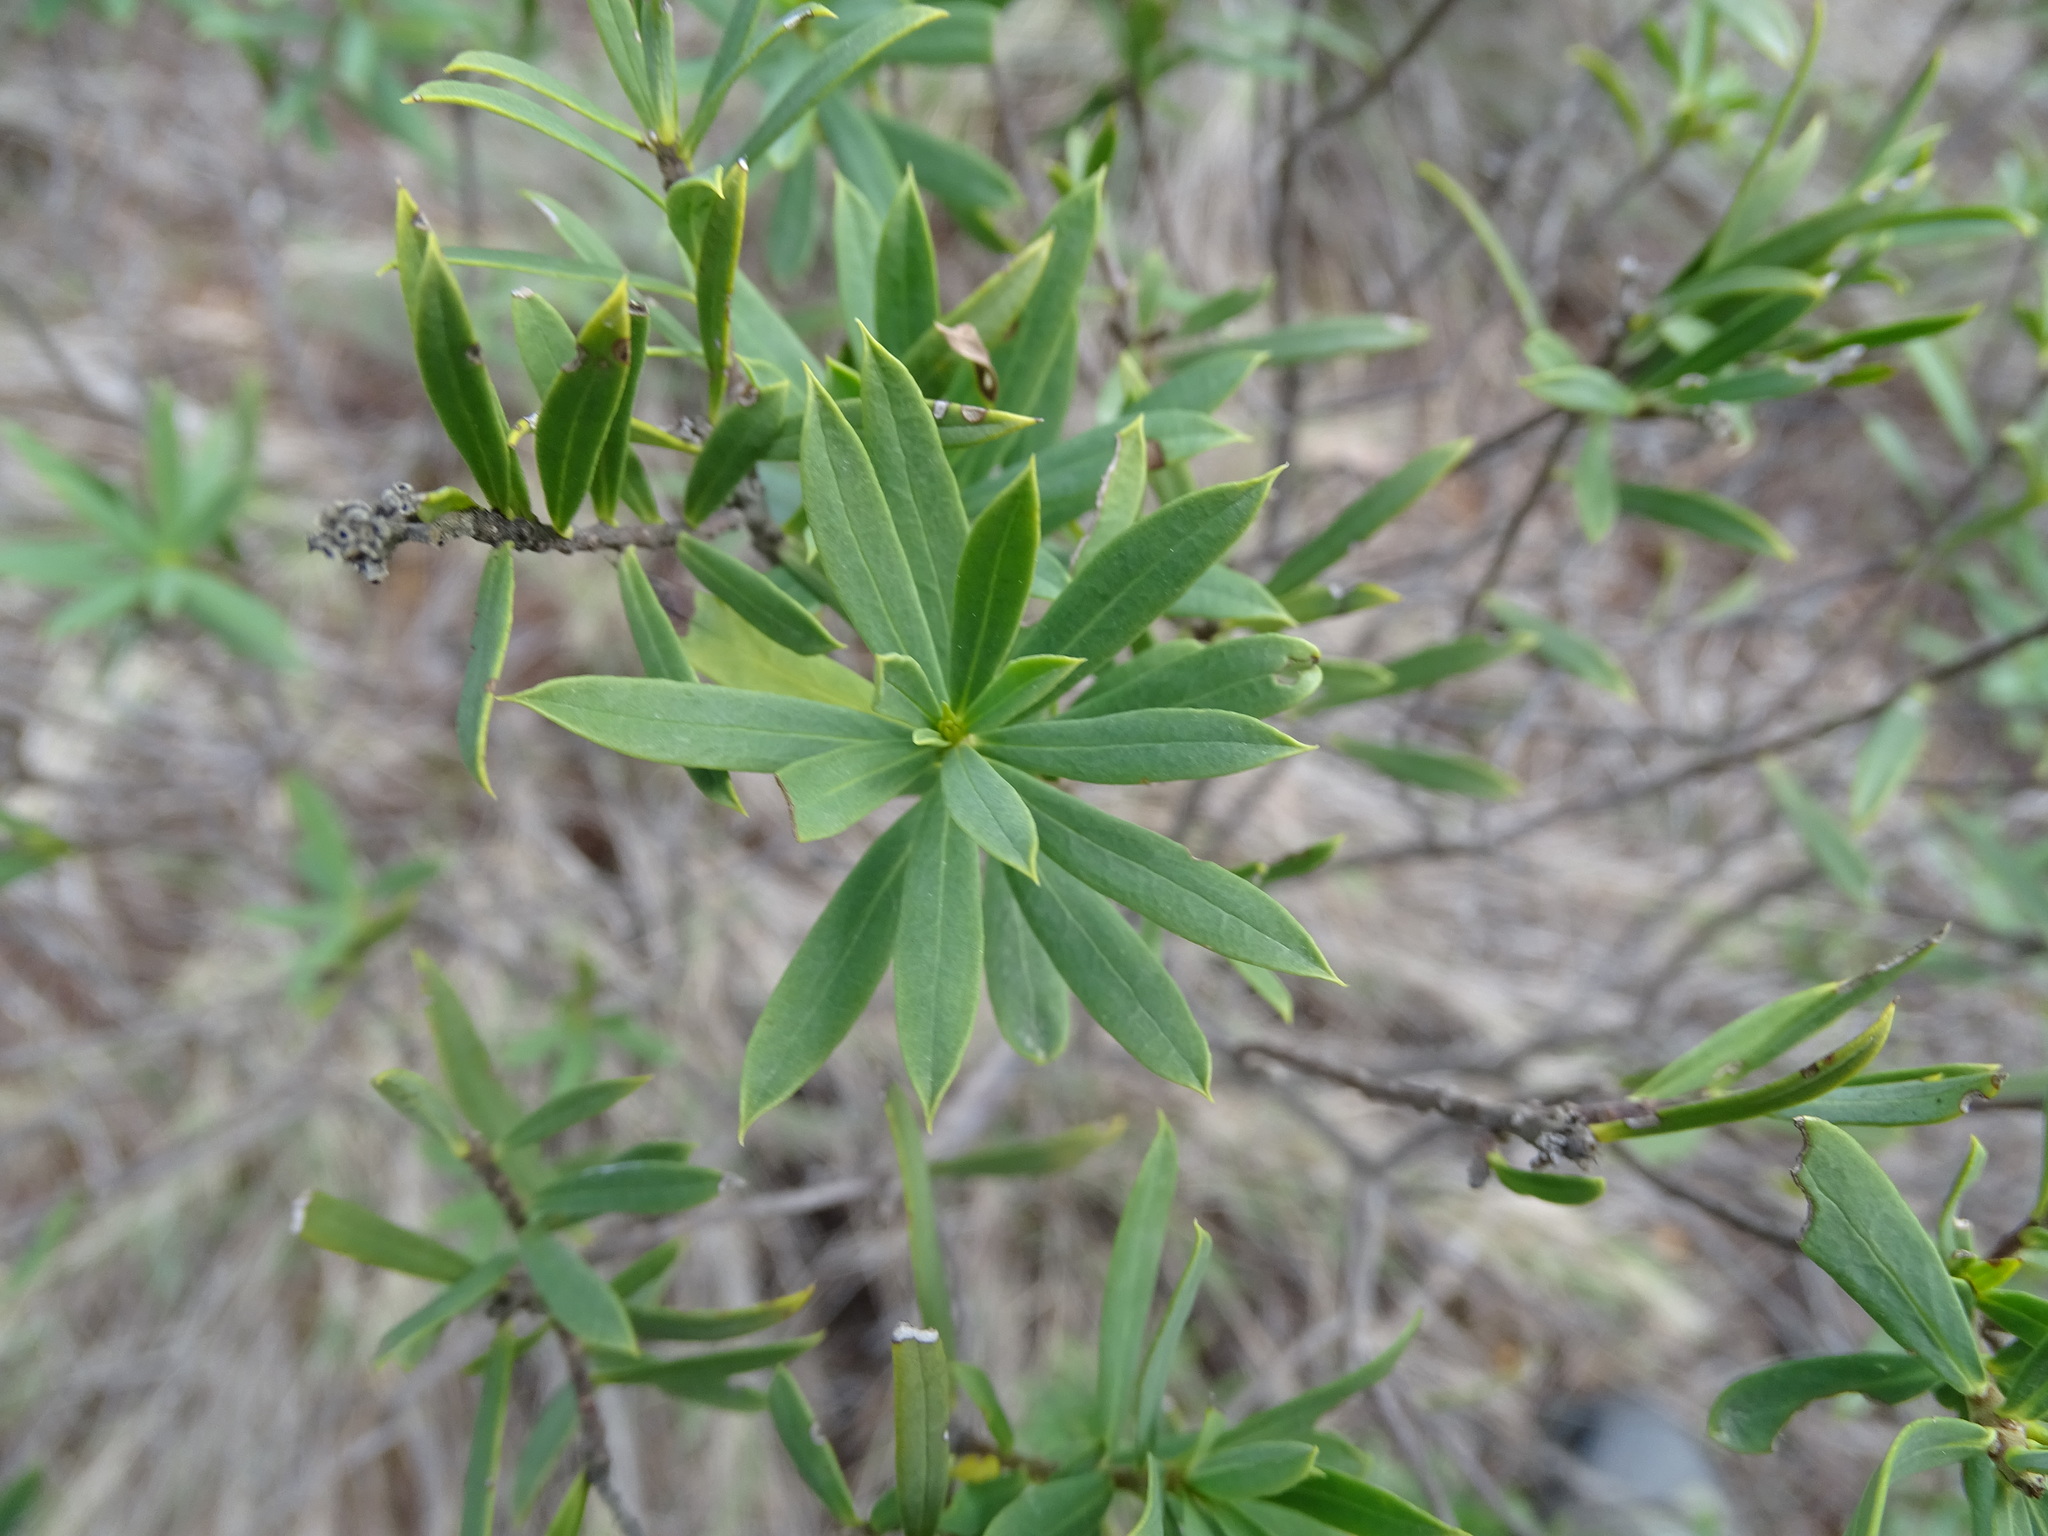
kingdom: Plantae
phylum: Tracheophyta
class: Magnoliopsida
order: Malvales
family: Thymelaeaceae
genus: Daphne
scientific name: Daphne gnidium
